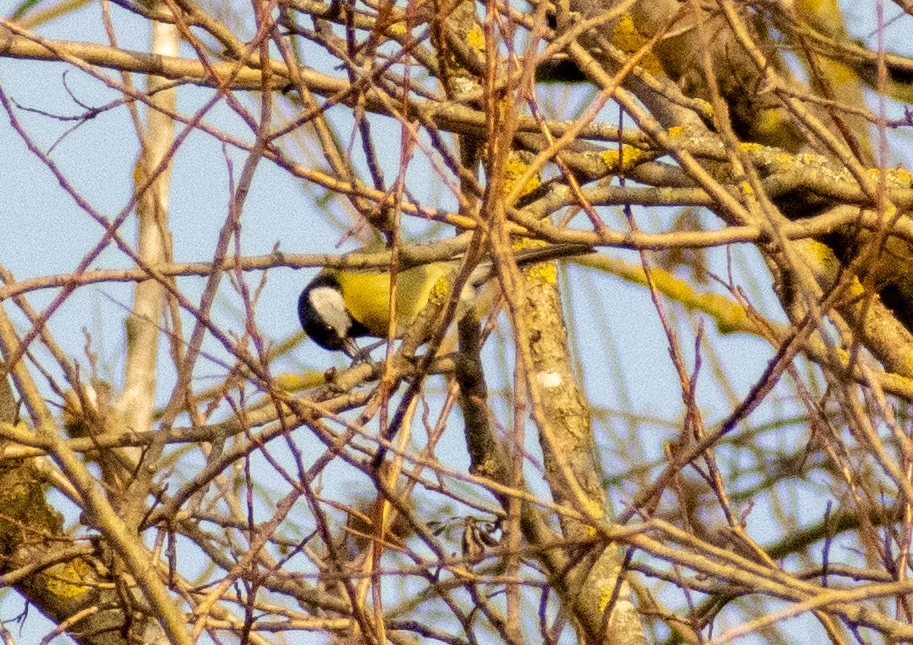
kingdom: Animalia
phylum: Chordata
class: Aves
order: Passeriformes
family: Paridae
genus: Parus
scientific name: Parus major
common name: Great tit
